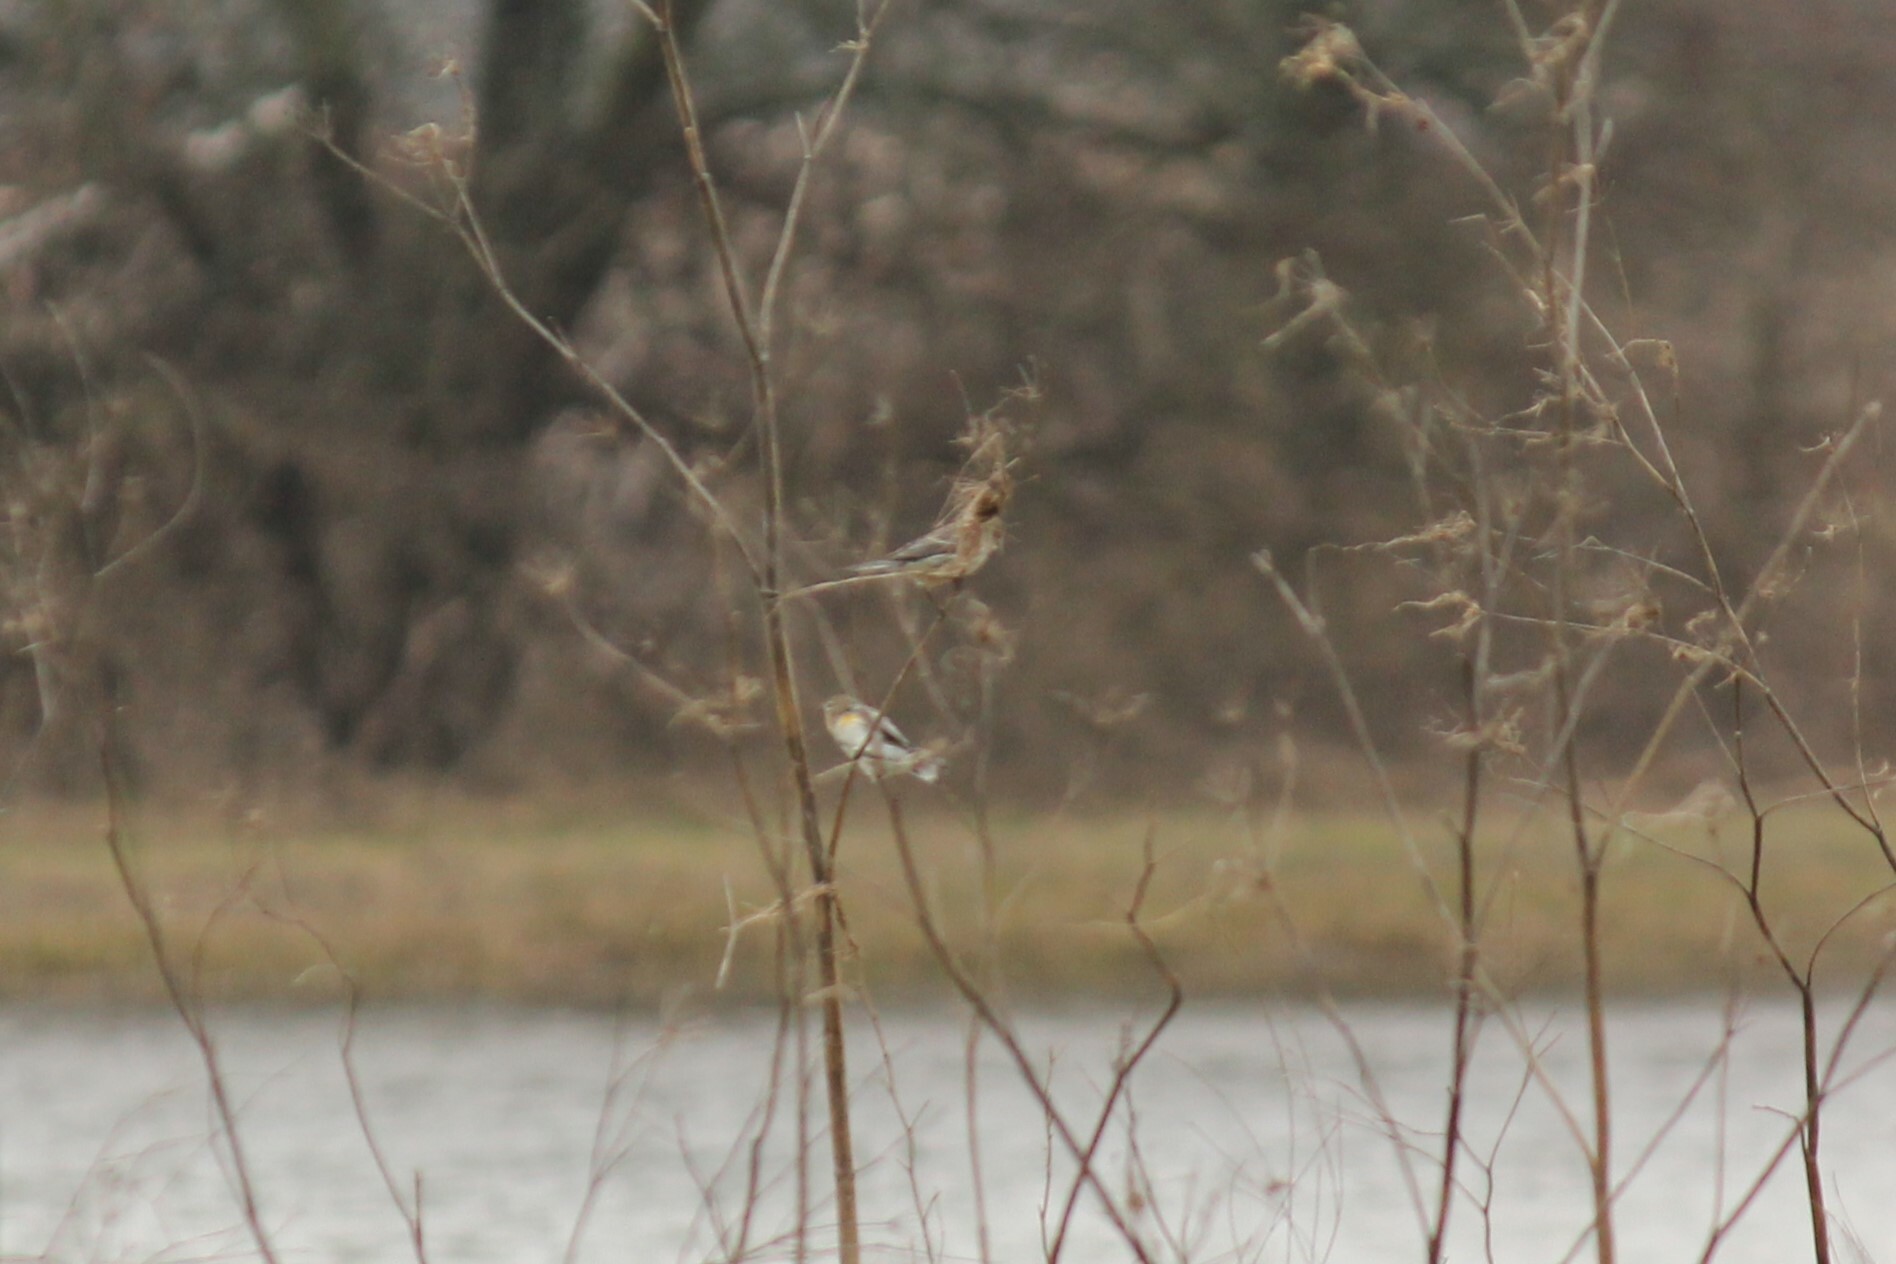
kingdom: Animalia
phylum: Chordata
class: Aves
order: Passeriformes
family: Parulidae
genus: Setophaga
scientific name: Setophaga coronata
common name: Myrtle warbler
